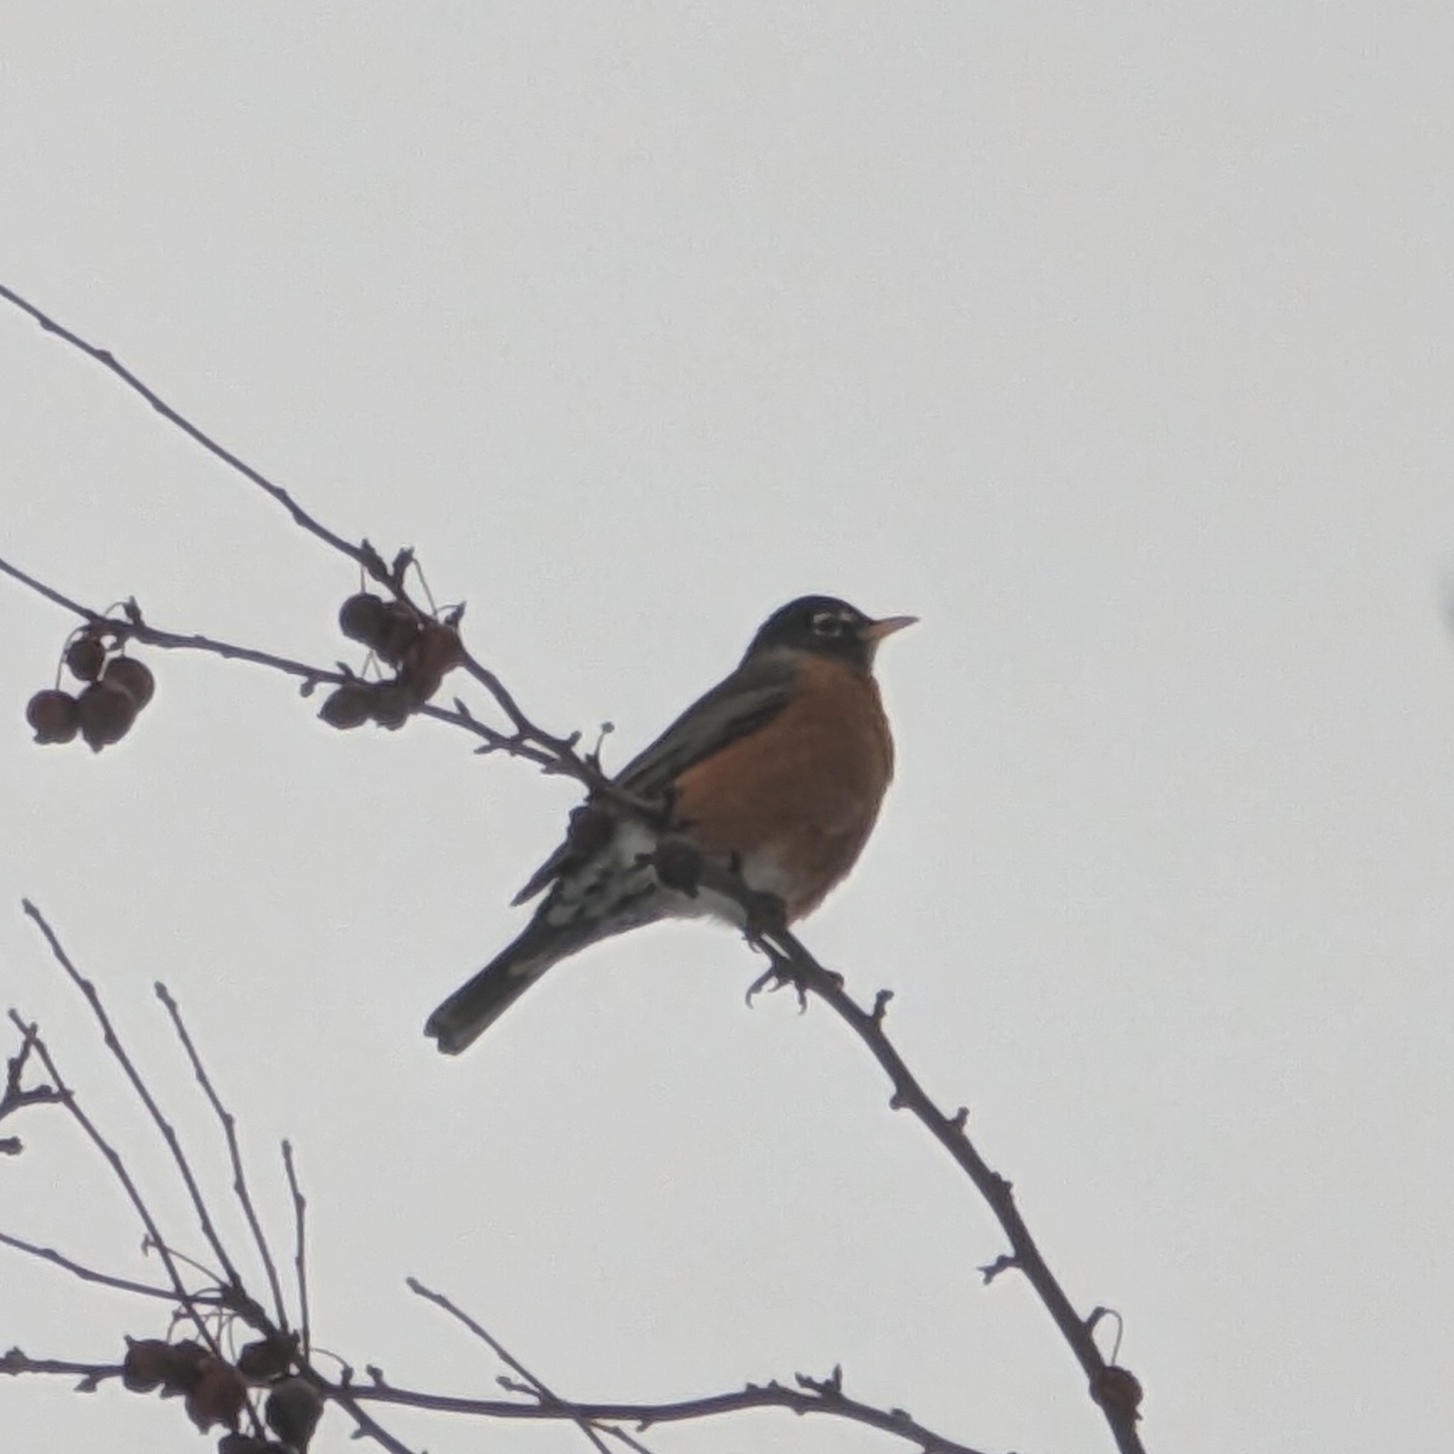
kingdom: Animalia
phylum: Chordata
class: Aves
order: Passeriformes
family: Turdidae
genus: Turdus
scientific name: Turdus migratorius
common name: American robin
